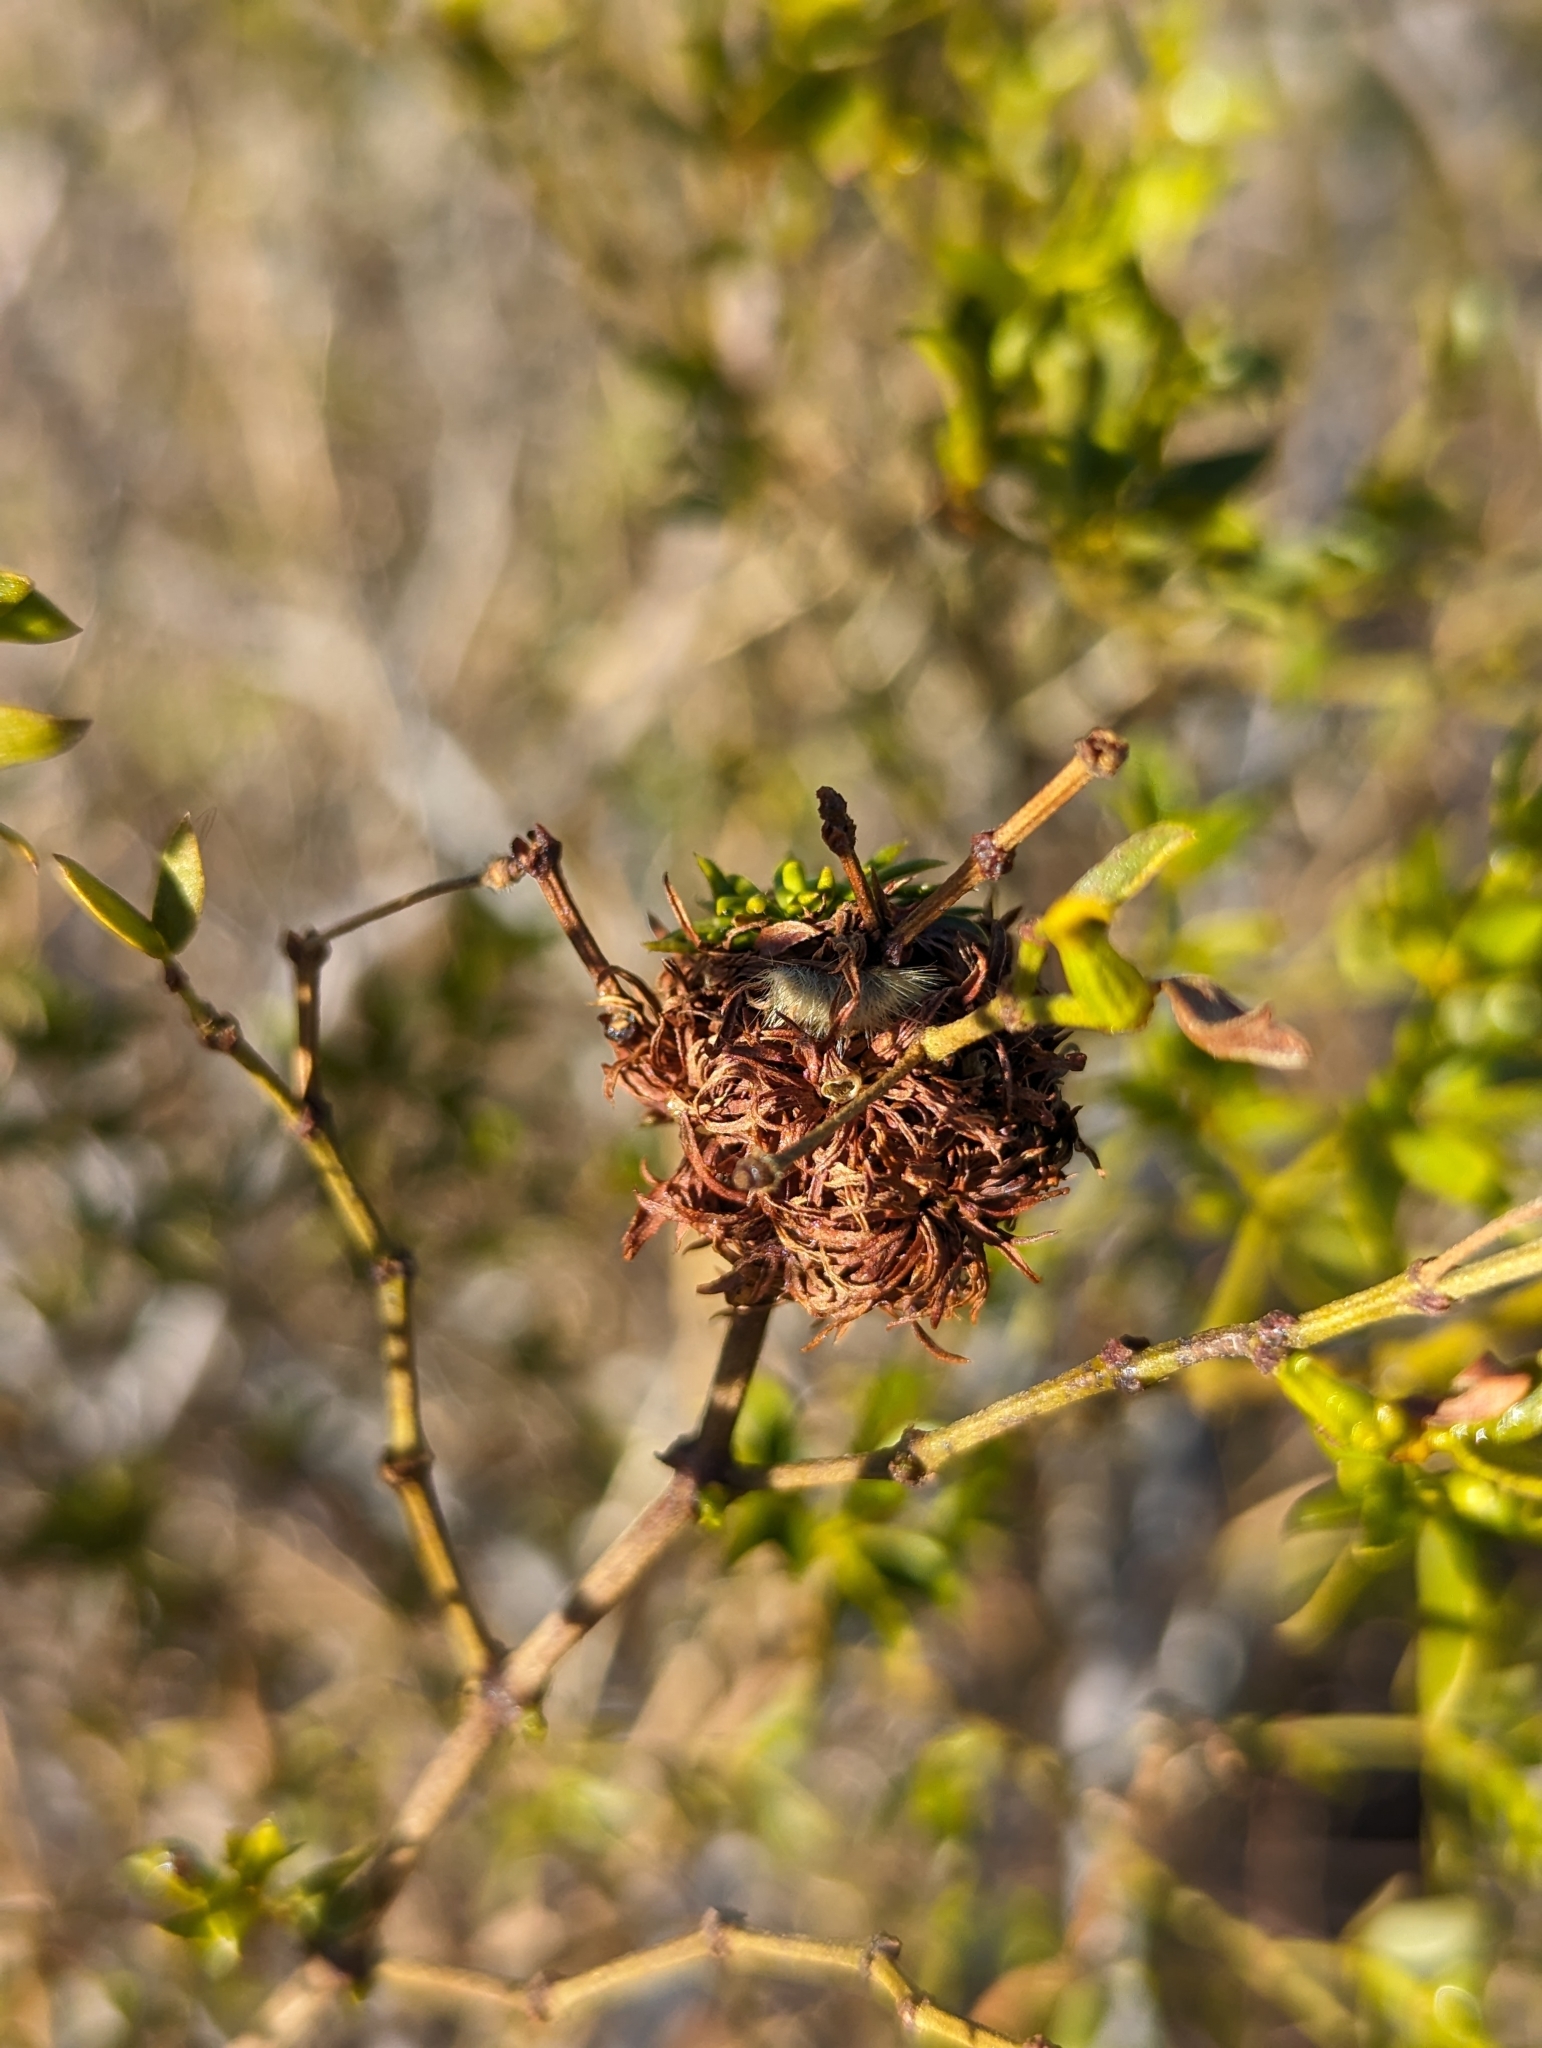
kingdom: Animalia
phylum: Arthropoda
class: Insecta
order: Diptera
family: Cecidomyiidae
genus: Asphondylia
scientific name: Asphondylia auripila
